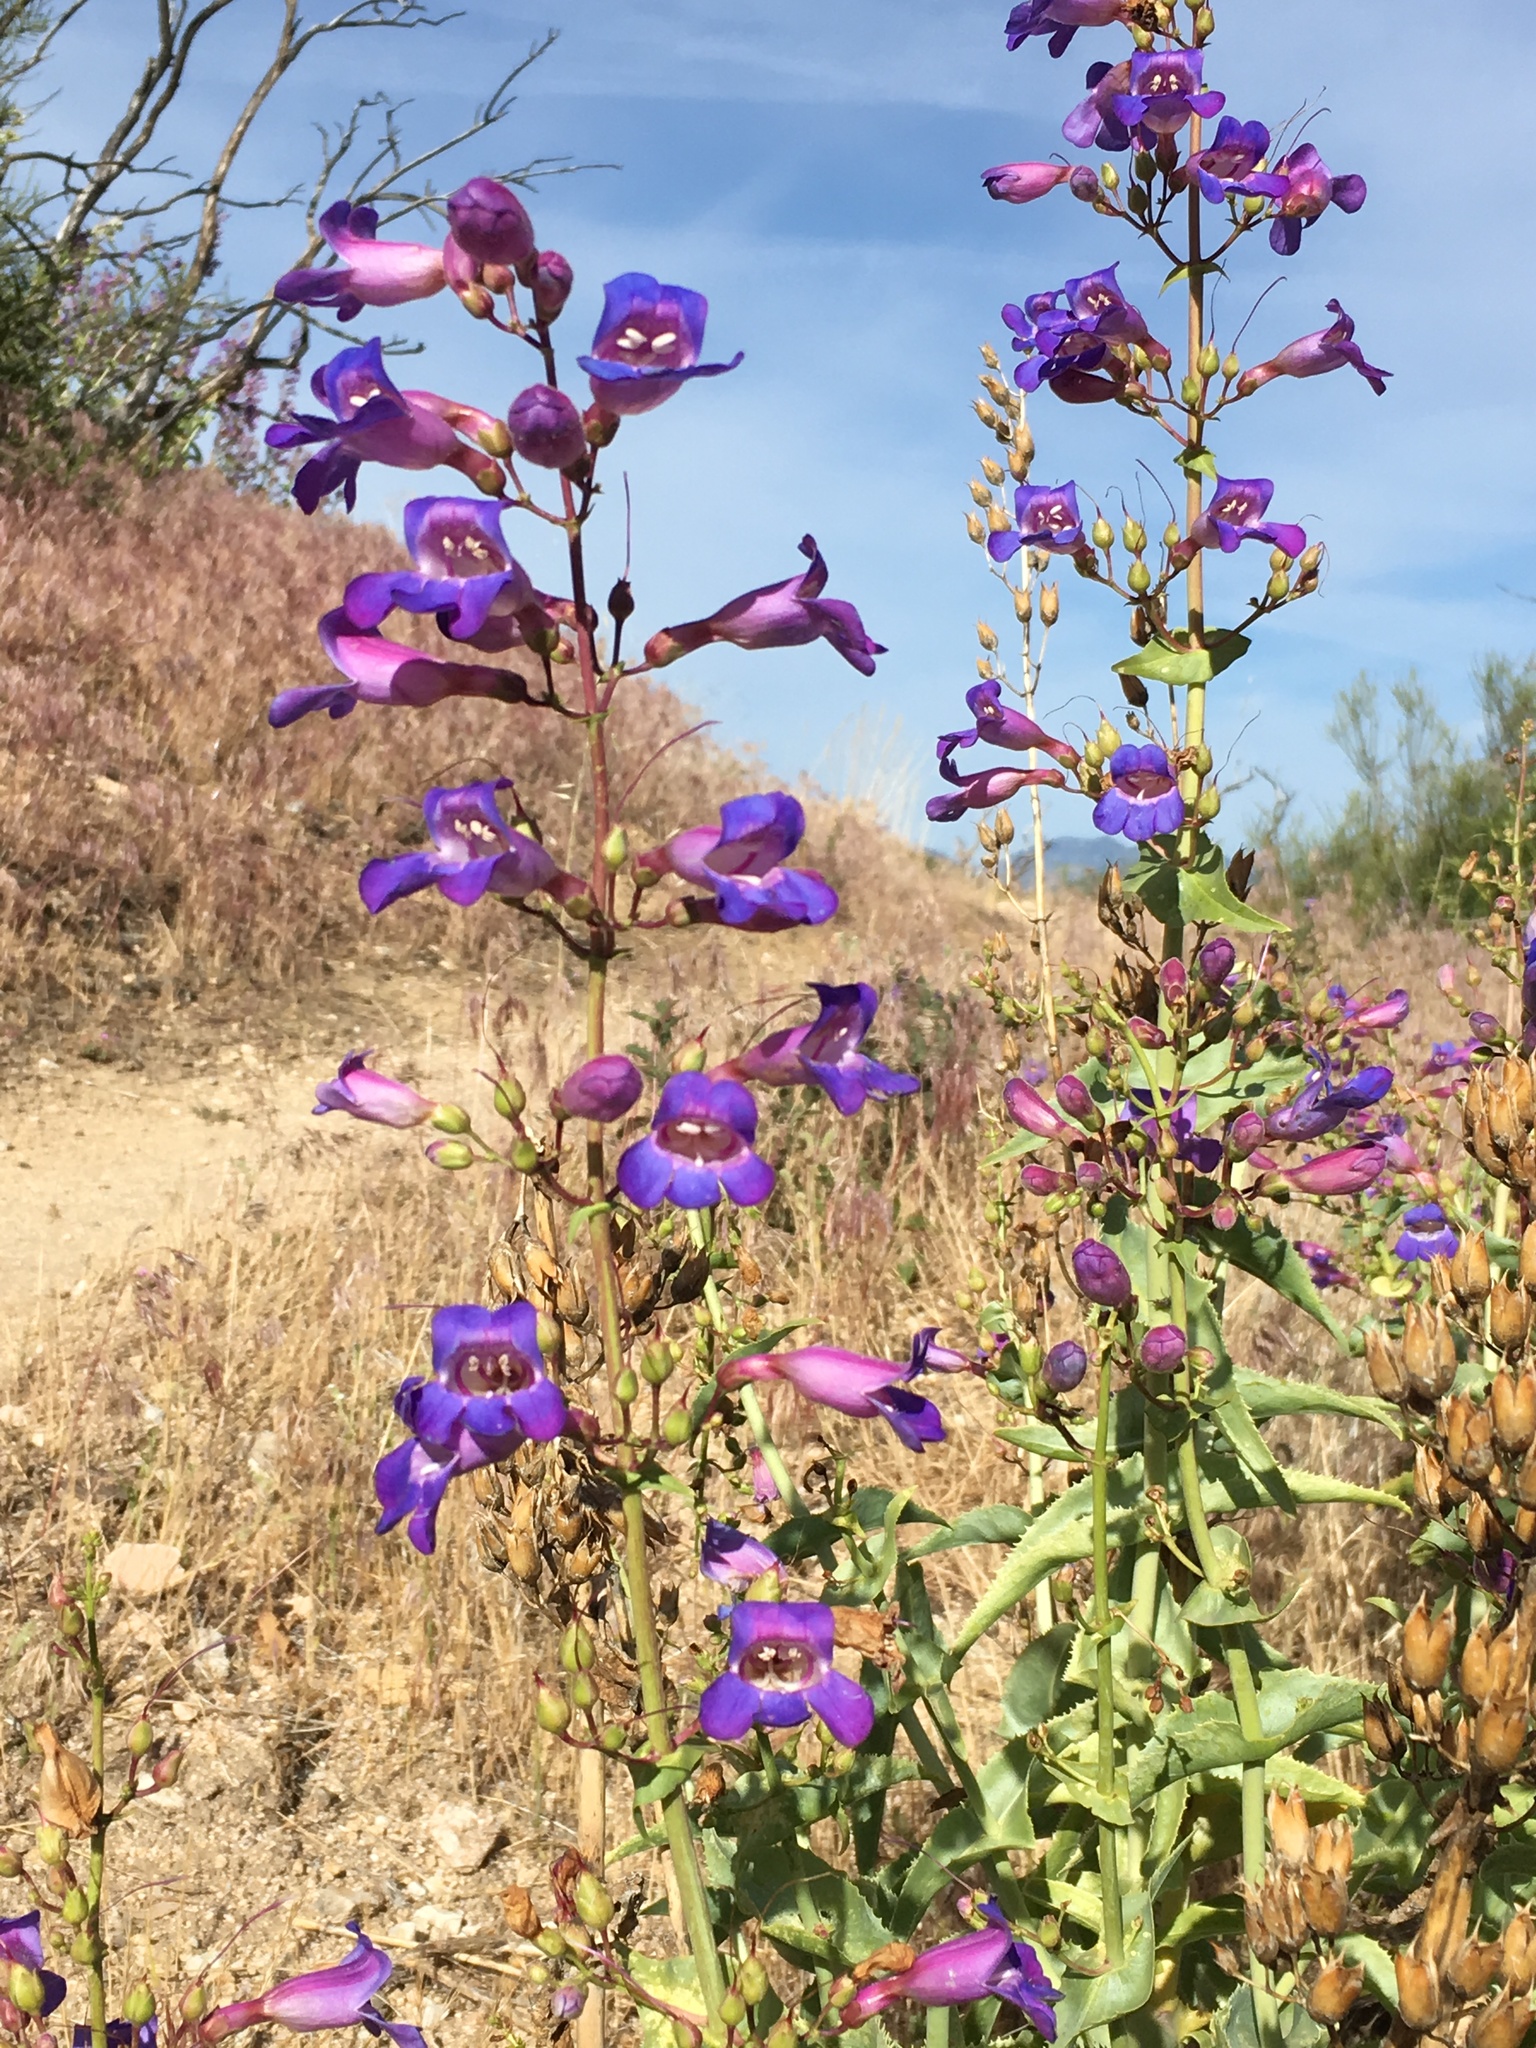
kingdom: Plantae
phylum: Tracheophyta
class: Magnoliopsida
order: Lamiales
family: Plantaginaceae
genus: Penstemon
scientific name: Penstemon spectabilis
